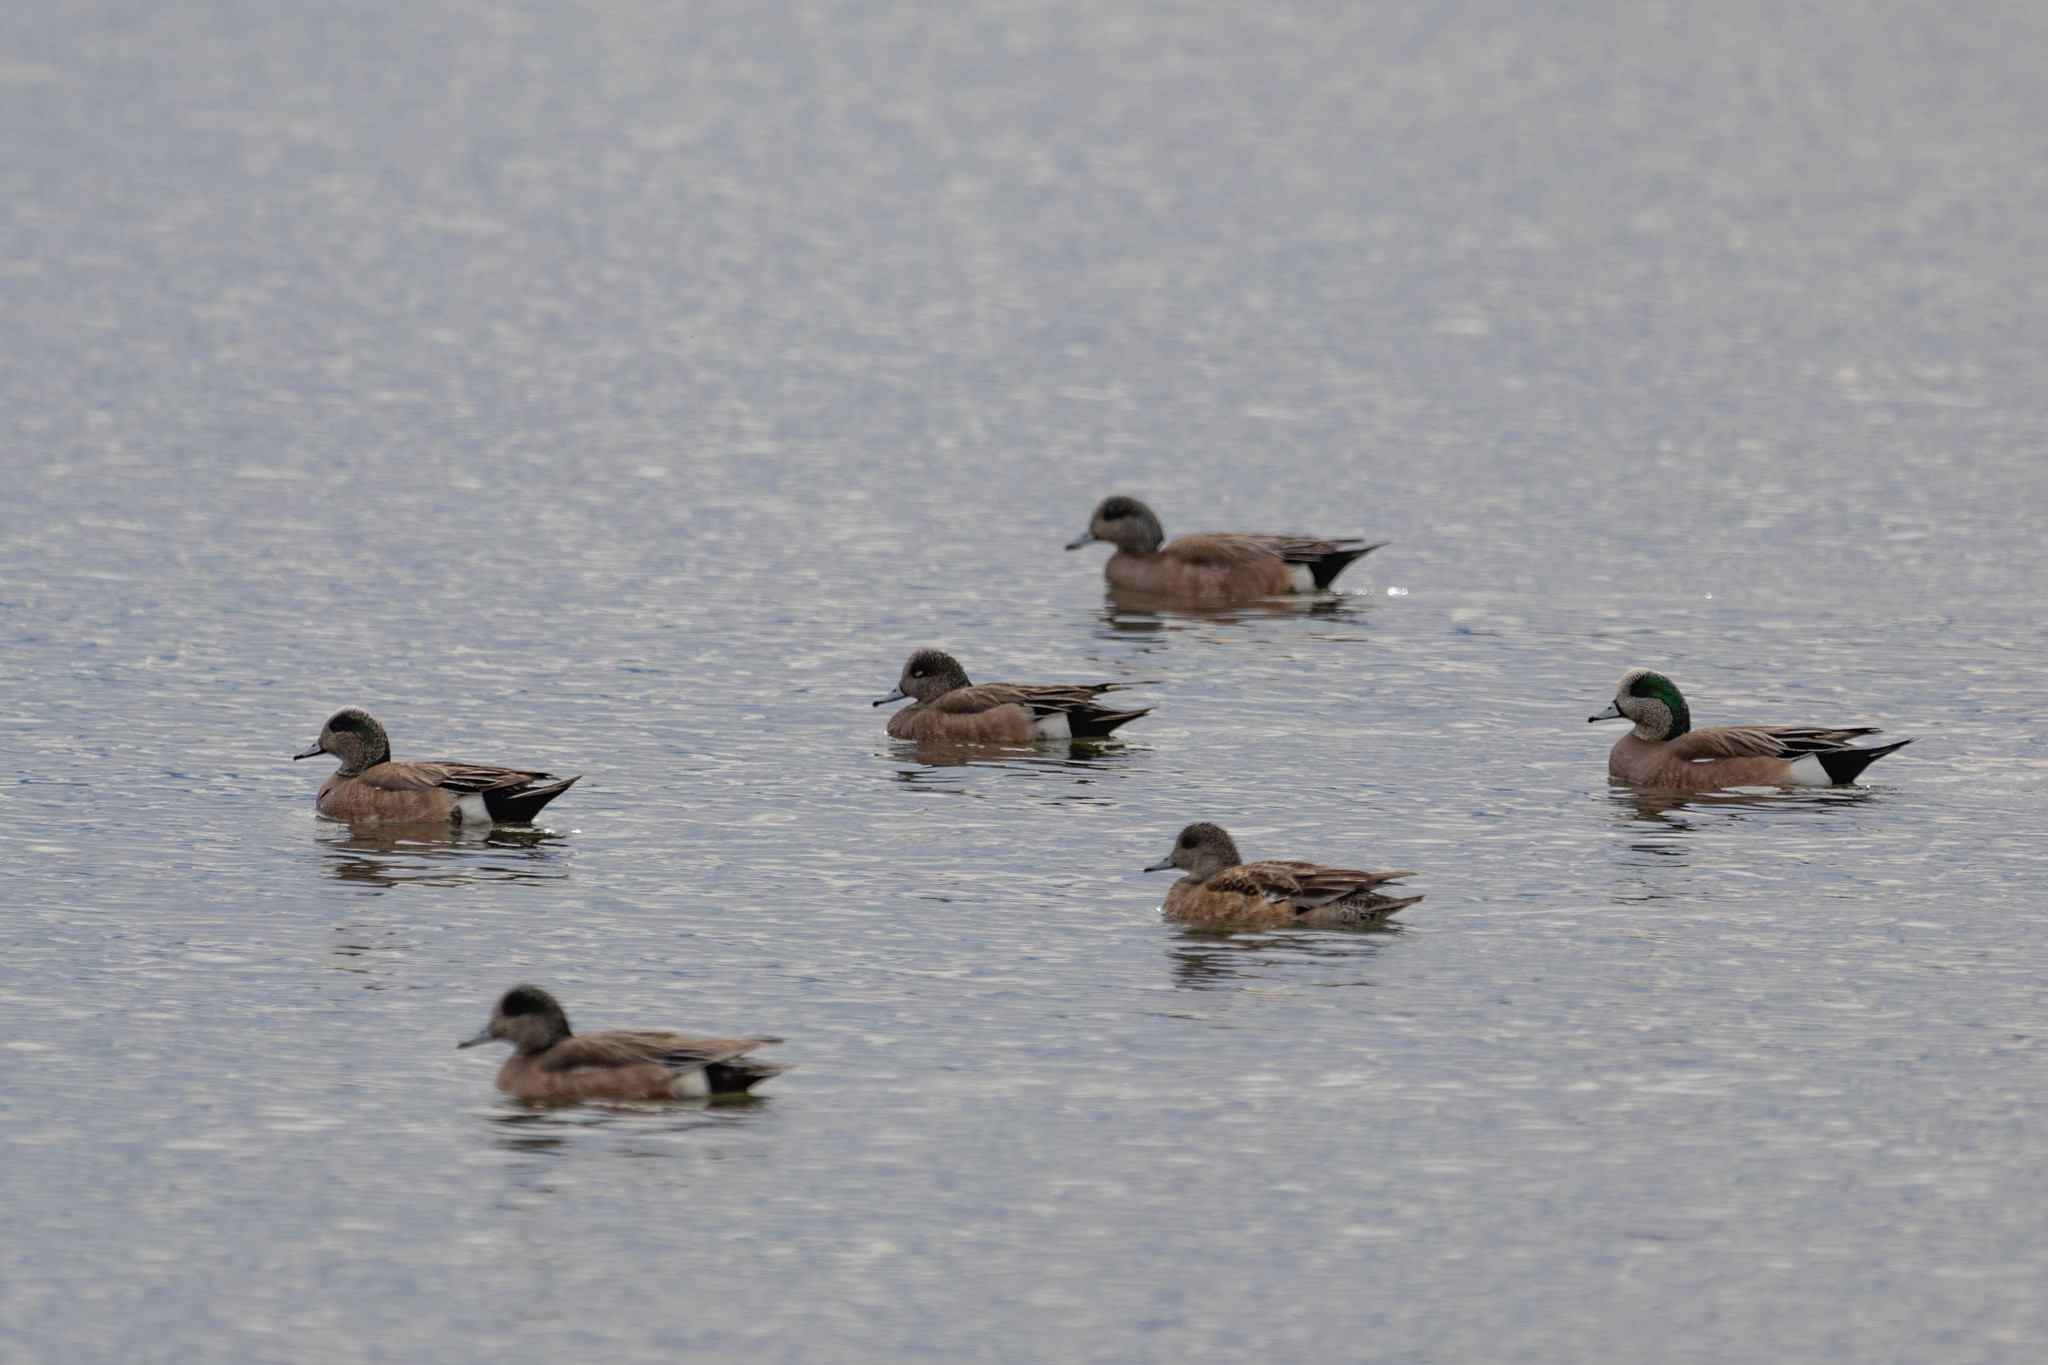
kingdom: Animalia
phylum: Chordata
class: Aves
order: Anseriformes
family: Anatidae
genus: Mareca
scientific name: Mareca americana
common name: American wigeon
